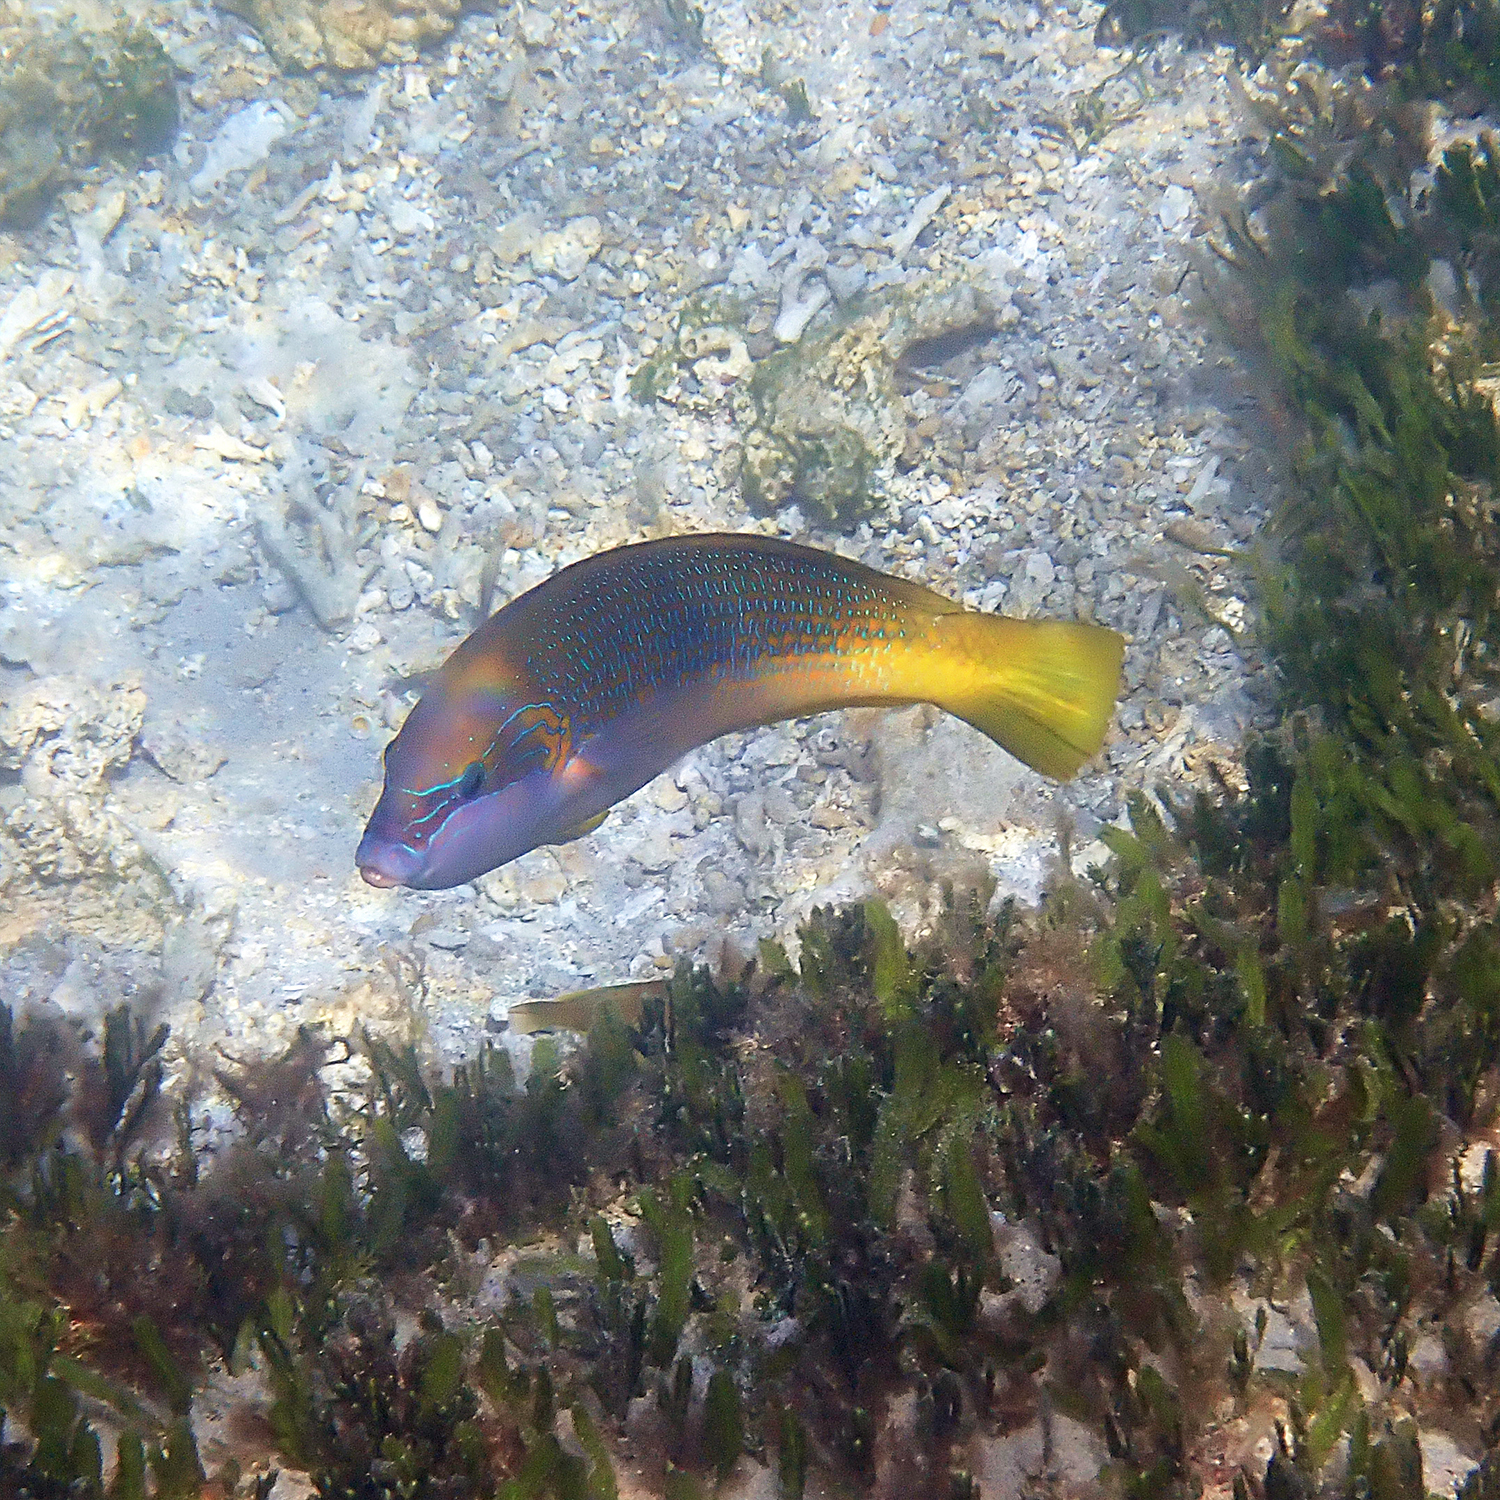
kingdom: Animalia
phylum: Chordata
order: Perciformes
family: Labridae
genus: Anampses
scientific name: Anampses elegans
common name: Elegant wrasse
